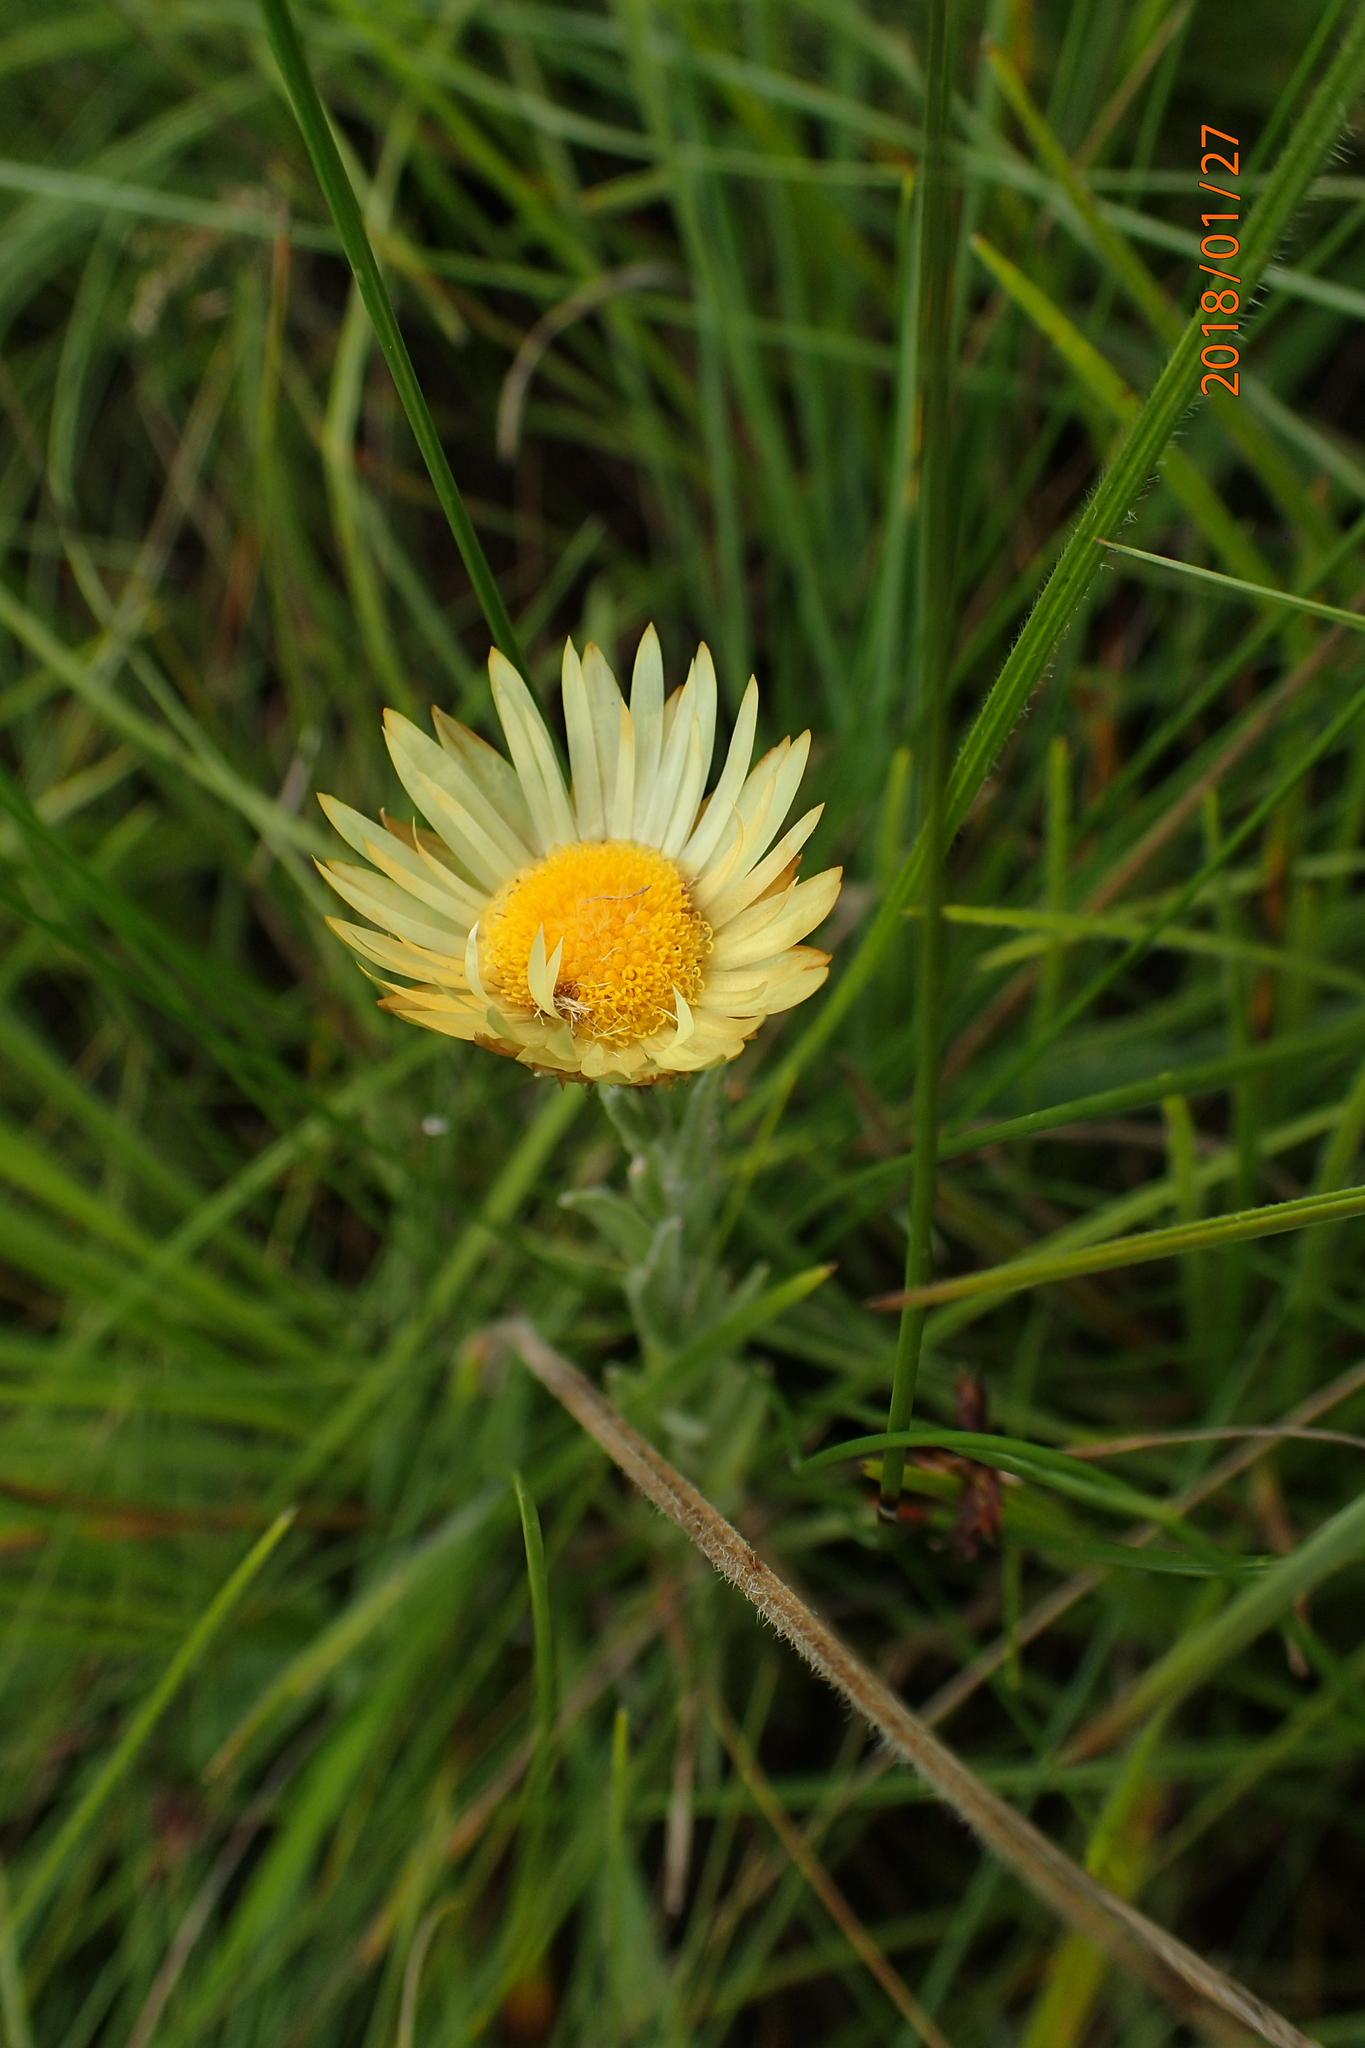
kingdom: Plantae
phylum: Tracheophyta
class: Magnoliopsida
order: Asterales
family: Asteraceae
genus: Helichrysum
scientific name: Helichrysum herbaceum
